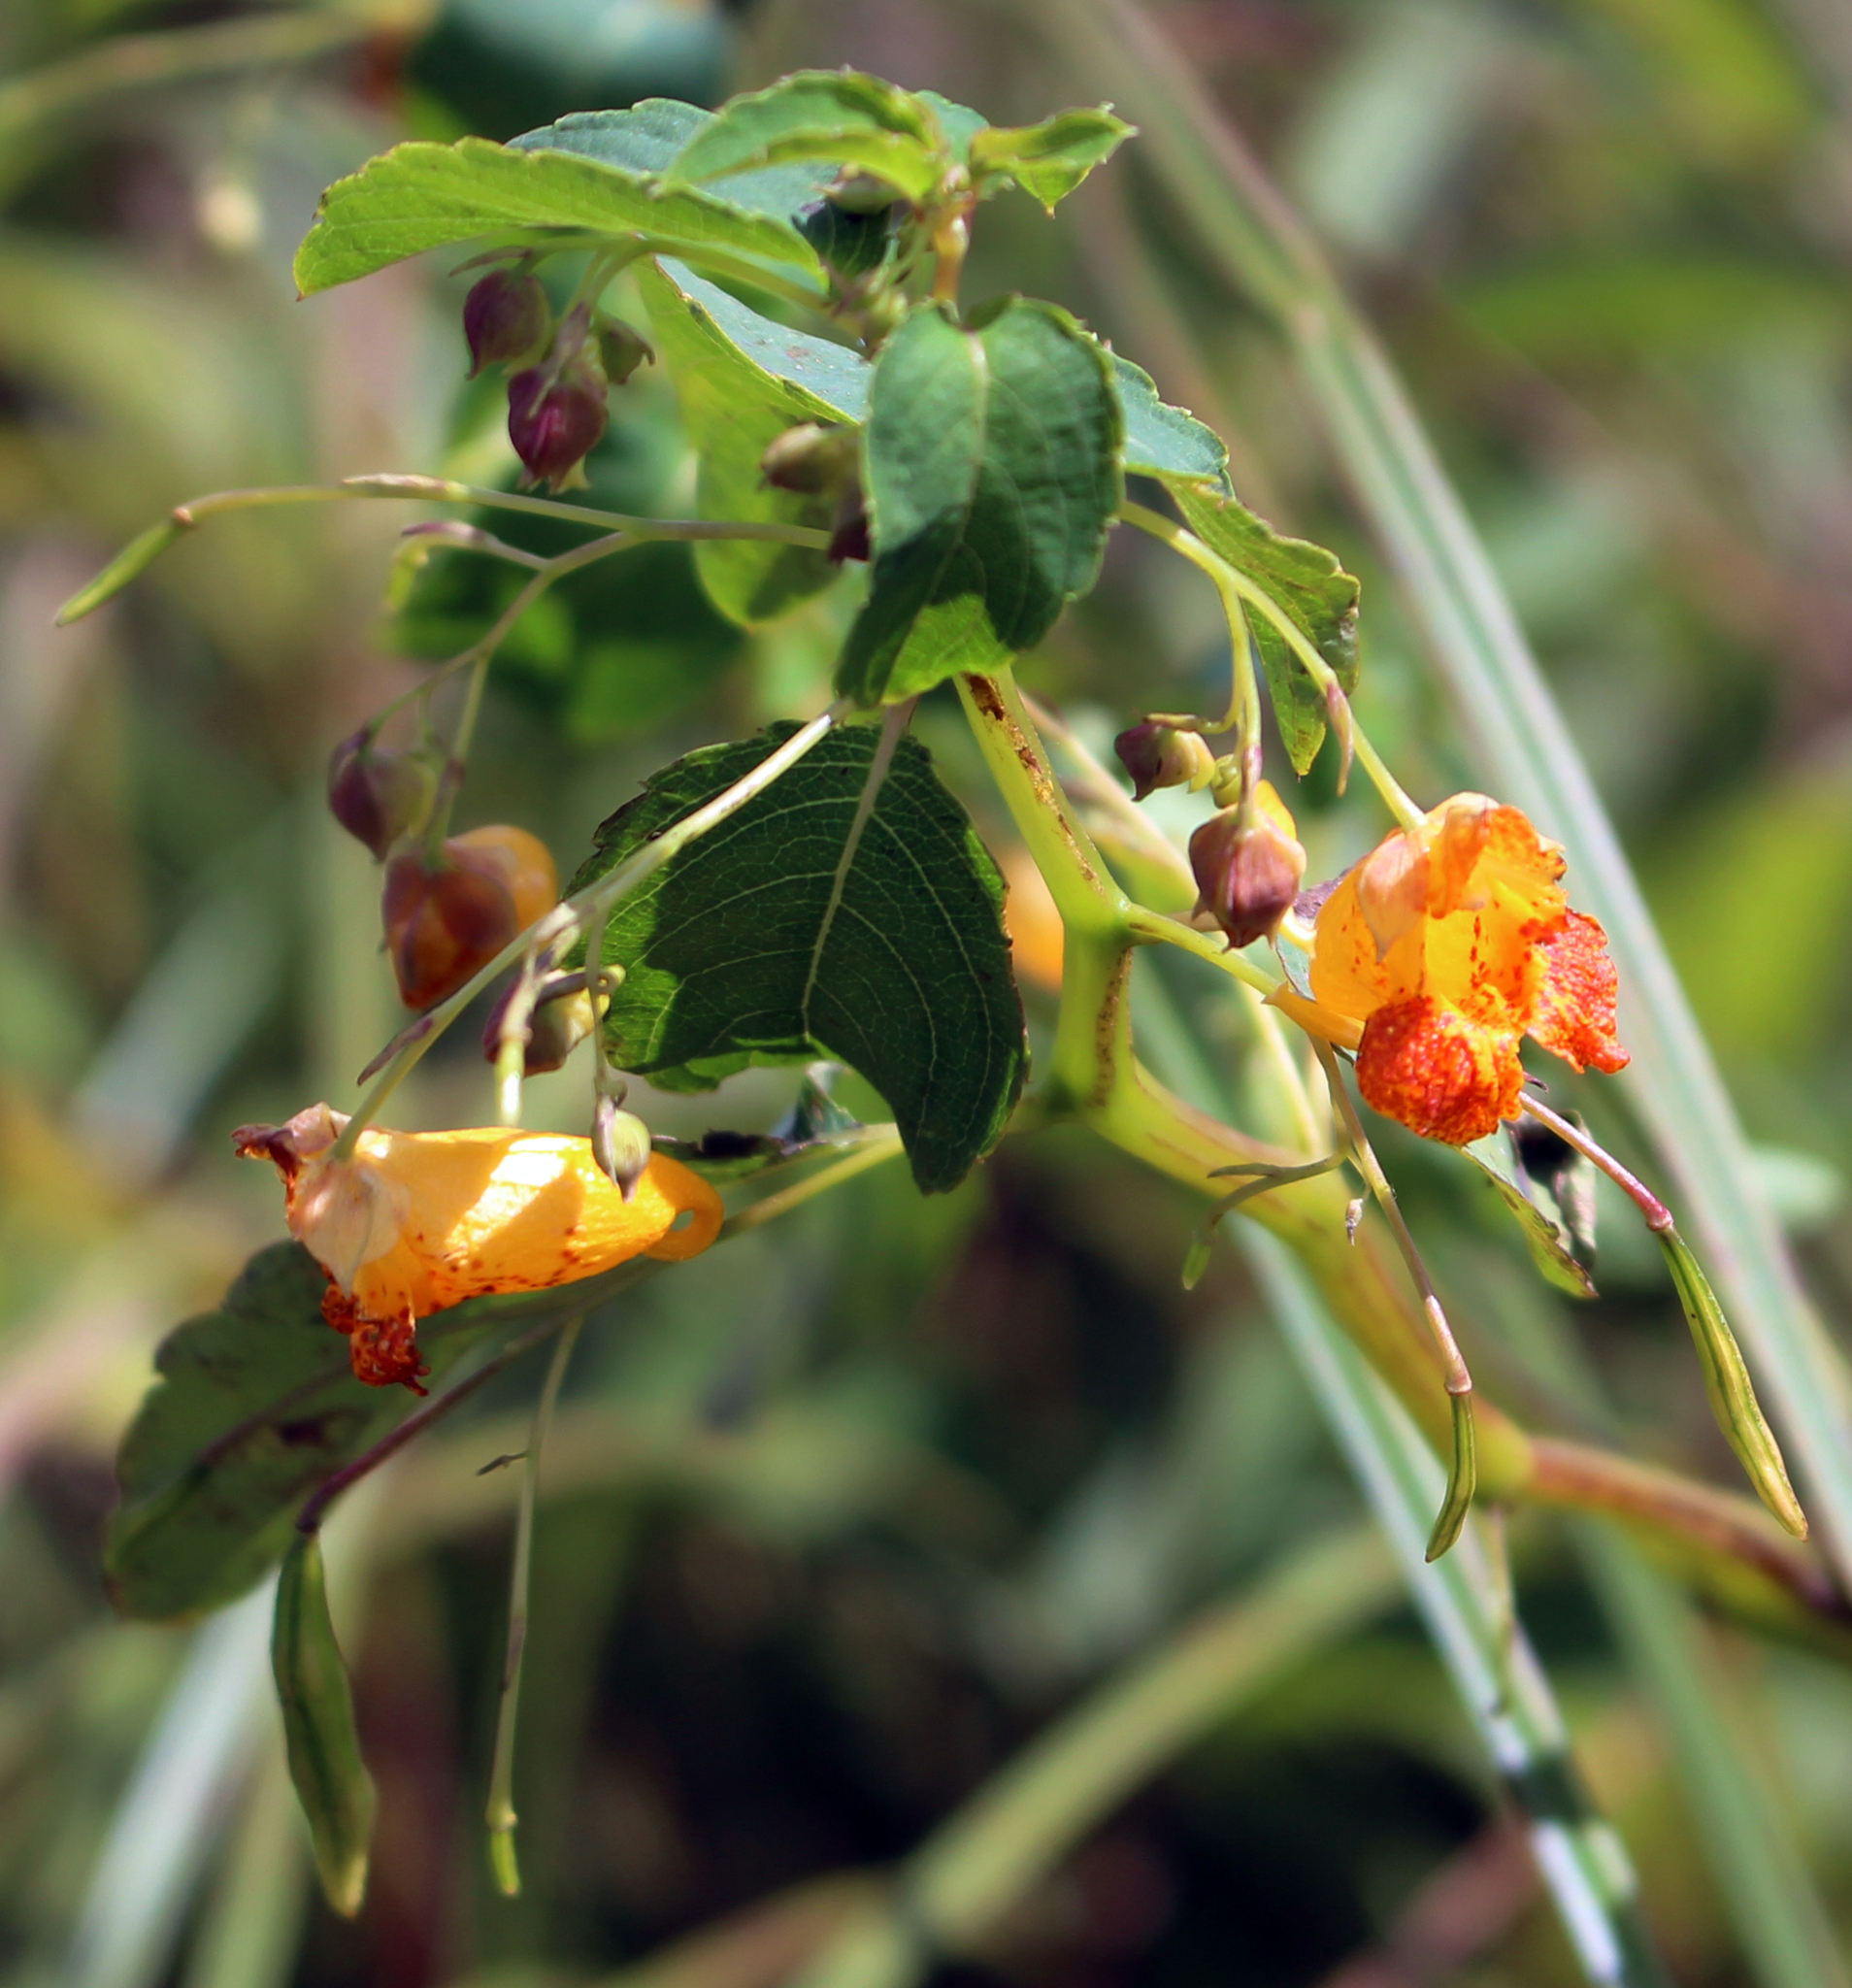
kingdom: Plantae
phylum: Tracheophyta
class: Magnoliopsida
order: Ericales
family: Balsaminaceae
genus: Impatiens
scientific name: Impatiens capensis
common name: Orange balsam
